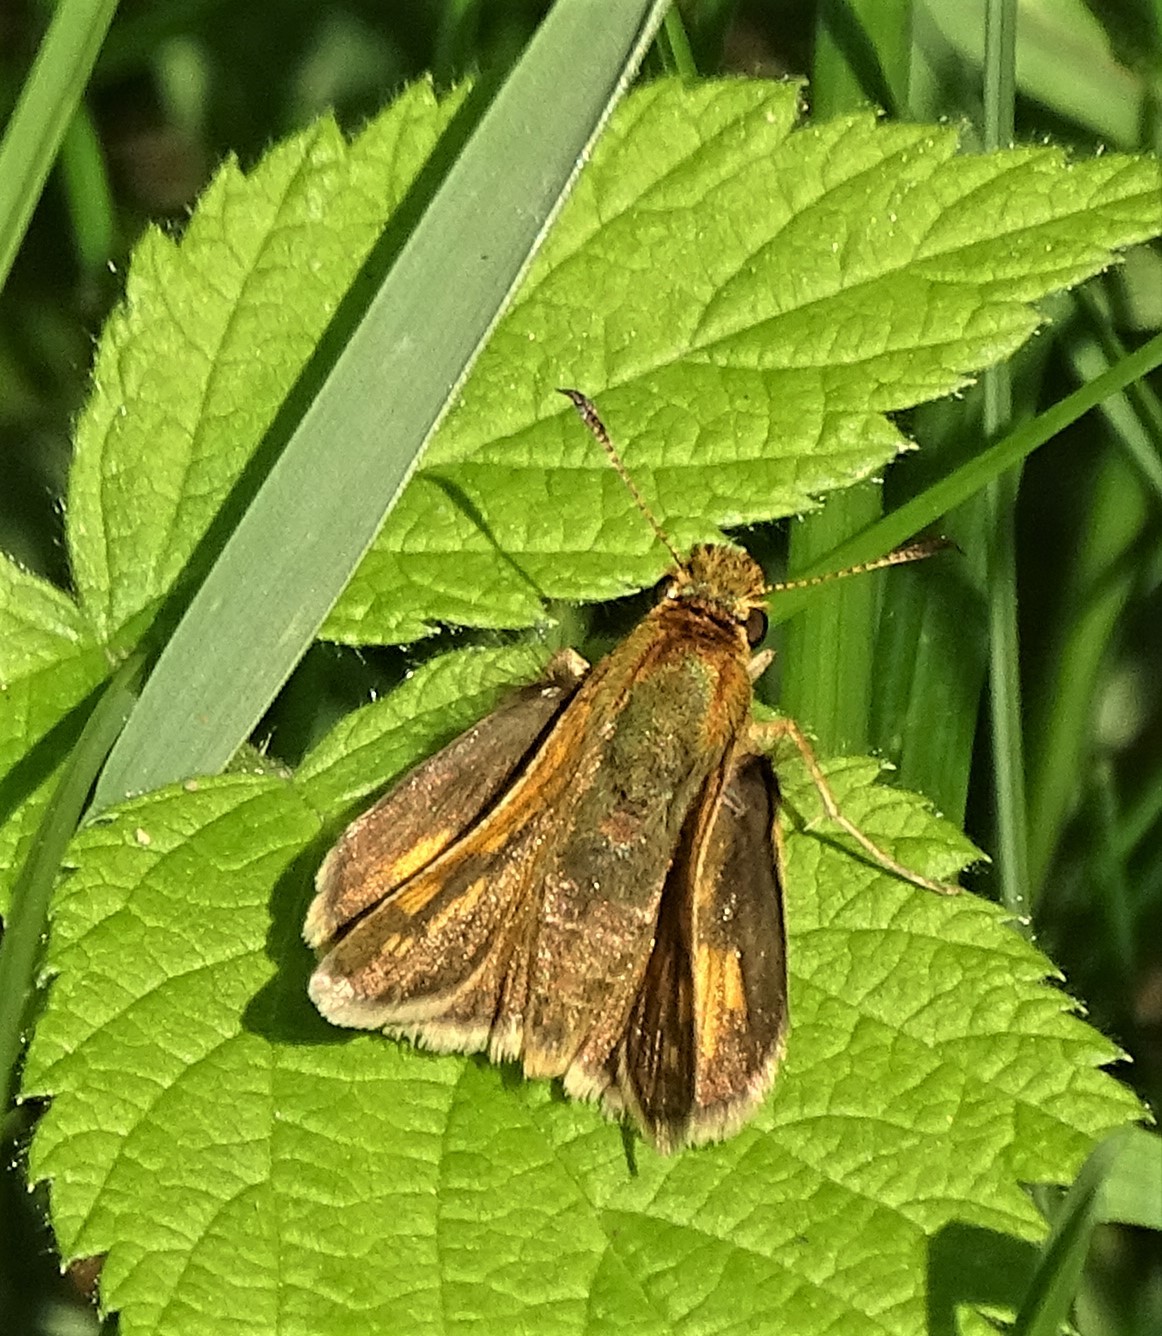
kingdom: Animalia
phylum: Arthropoda
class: Insecta
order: Lepidoptera
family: Hesperiidae
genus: Polites
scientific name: Polites coras
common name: Peck's skipper
